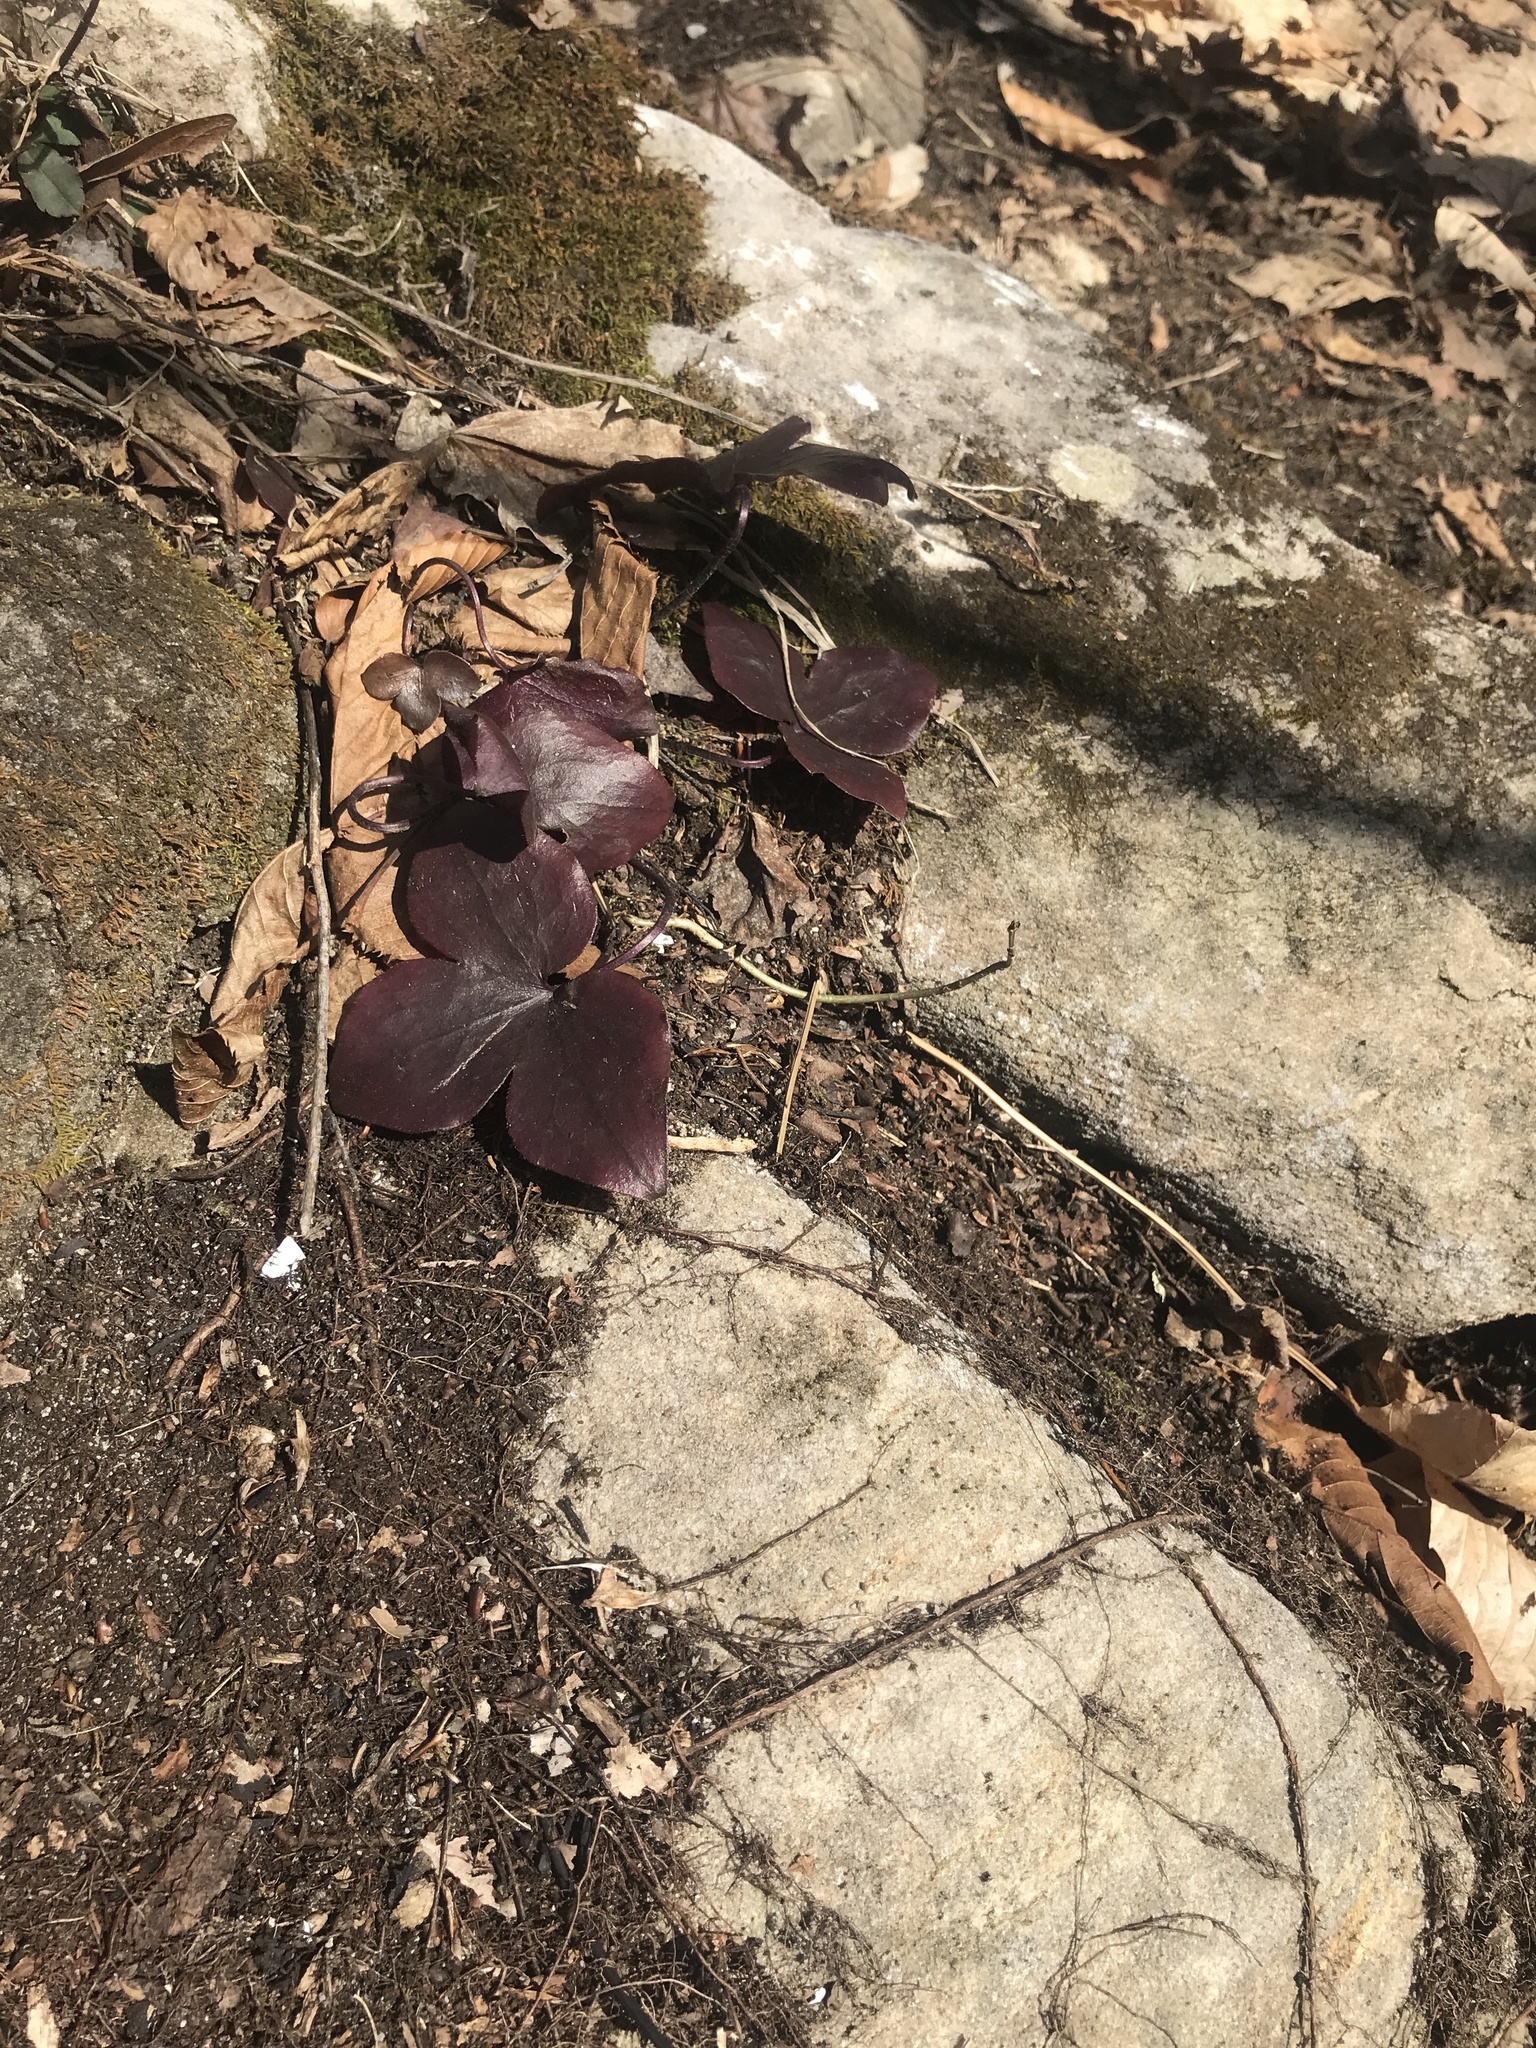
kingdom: Plantae
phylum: Tracheophyta
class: Magnoliopsida
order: Ranunculales
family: Ranunculaceae
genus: Hepatica
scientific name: Hepatica acutiloba
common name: Sharp-lobed hepatica
